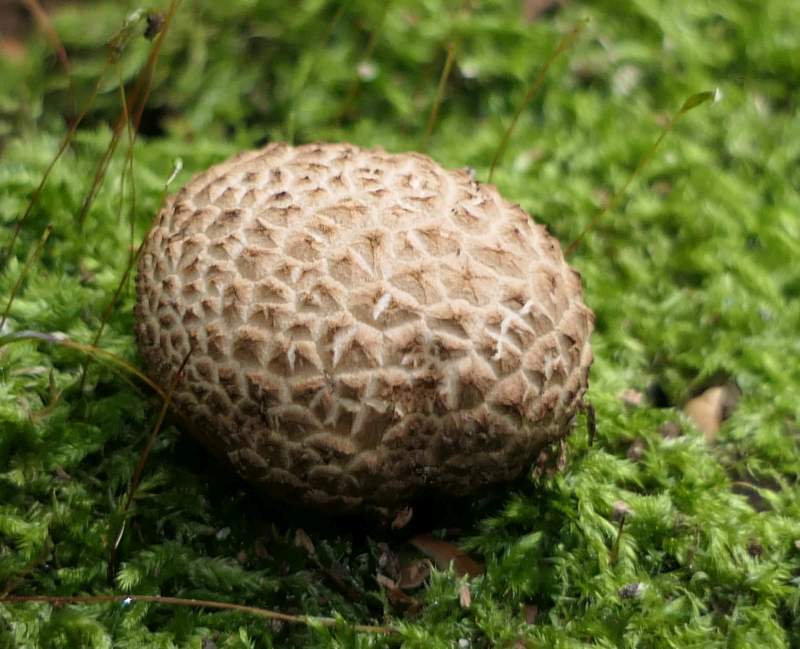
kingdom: Fungi
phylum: Basidiomycota
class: Agaricomycetes
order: Boletales
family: Sclerodermataceae
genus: Scleroderma
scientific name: Scleroderma citrinum
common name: Common earthball
